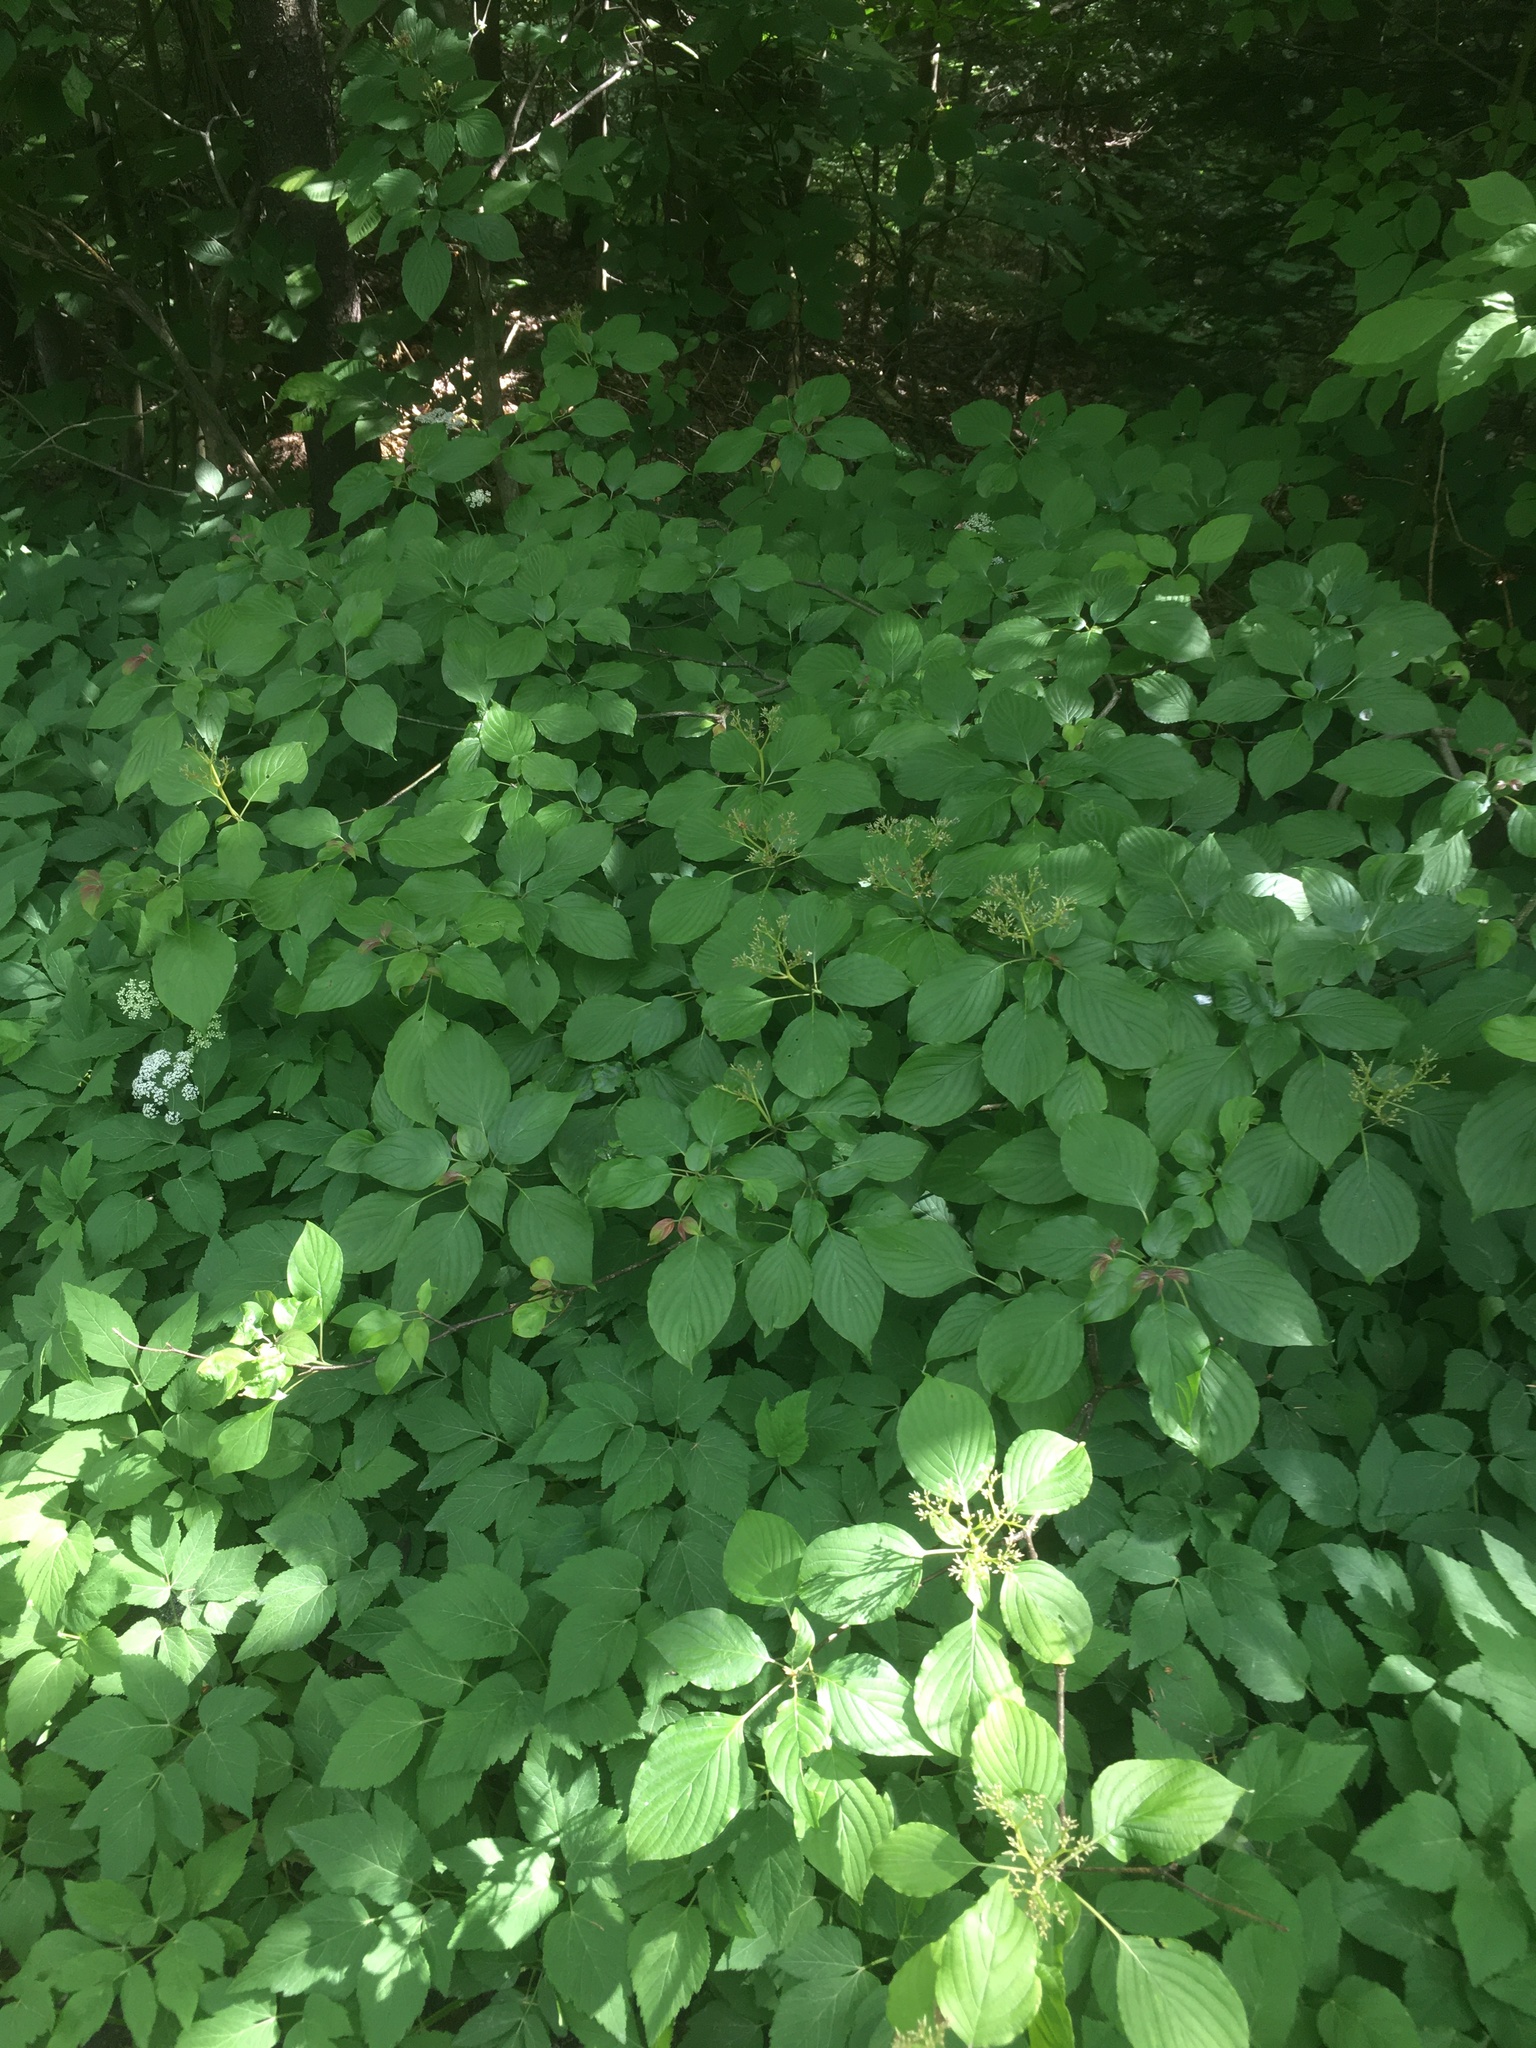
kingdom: Plantae
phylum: Tracheophyta
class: Magnoliopsida
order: Cornales
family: Cornaceae
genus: Cornus
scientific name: Cornus alternifolia
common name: Pagoda dogwood
